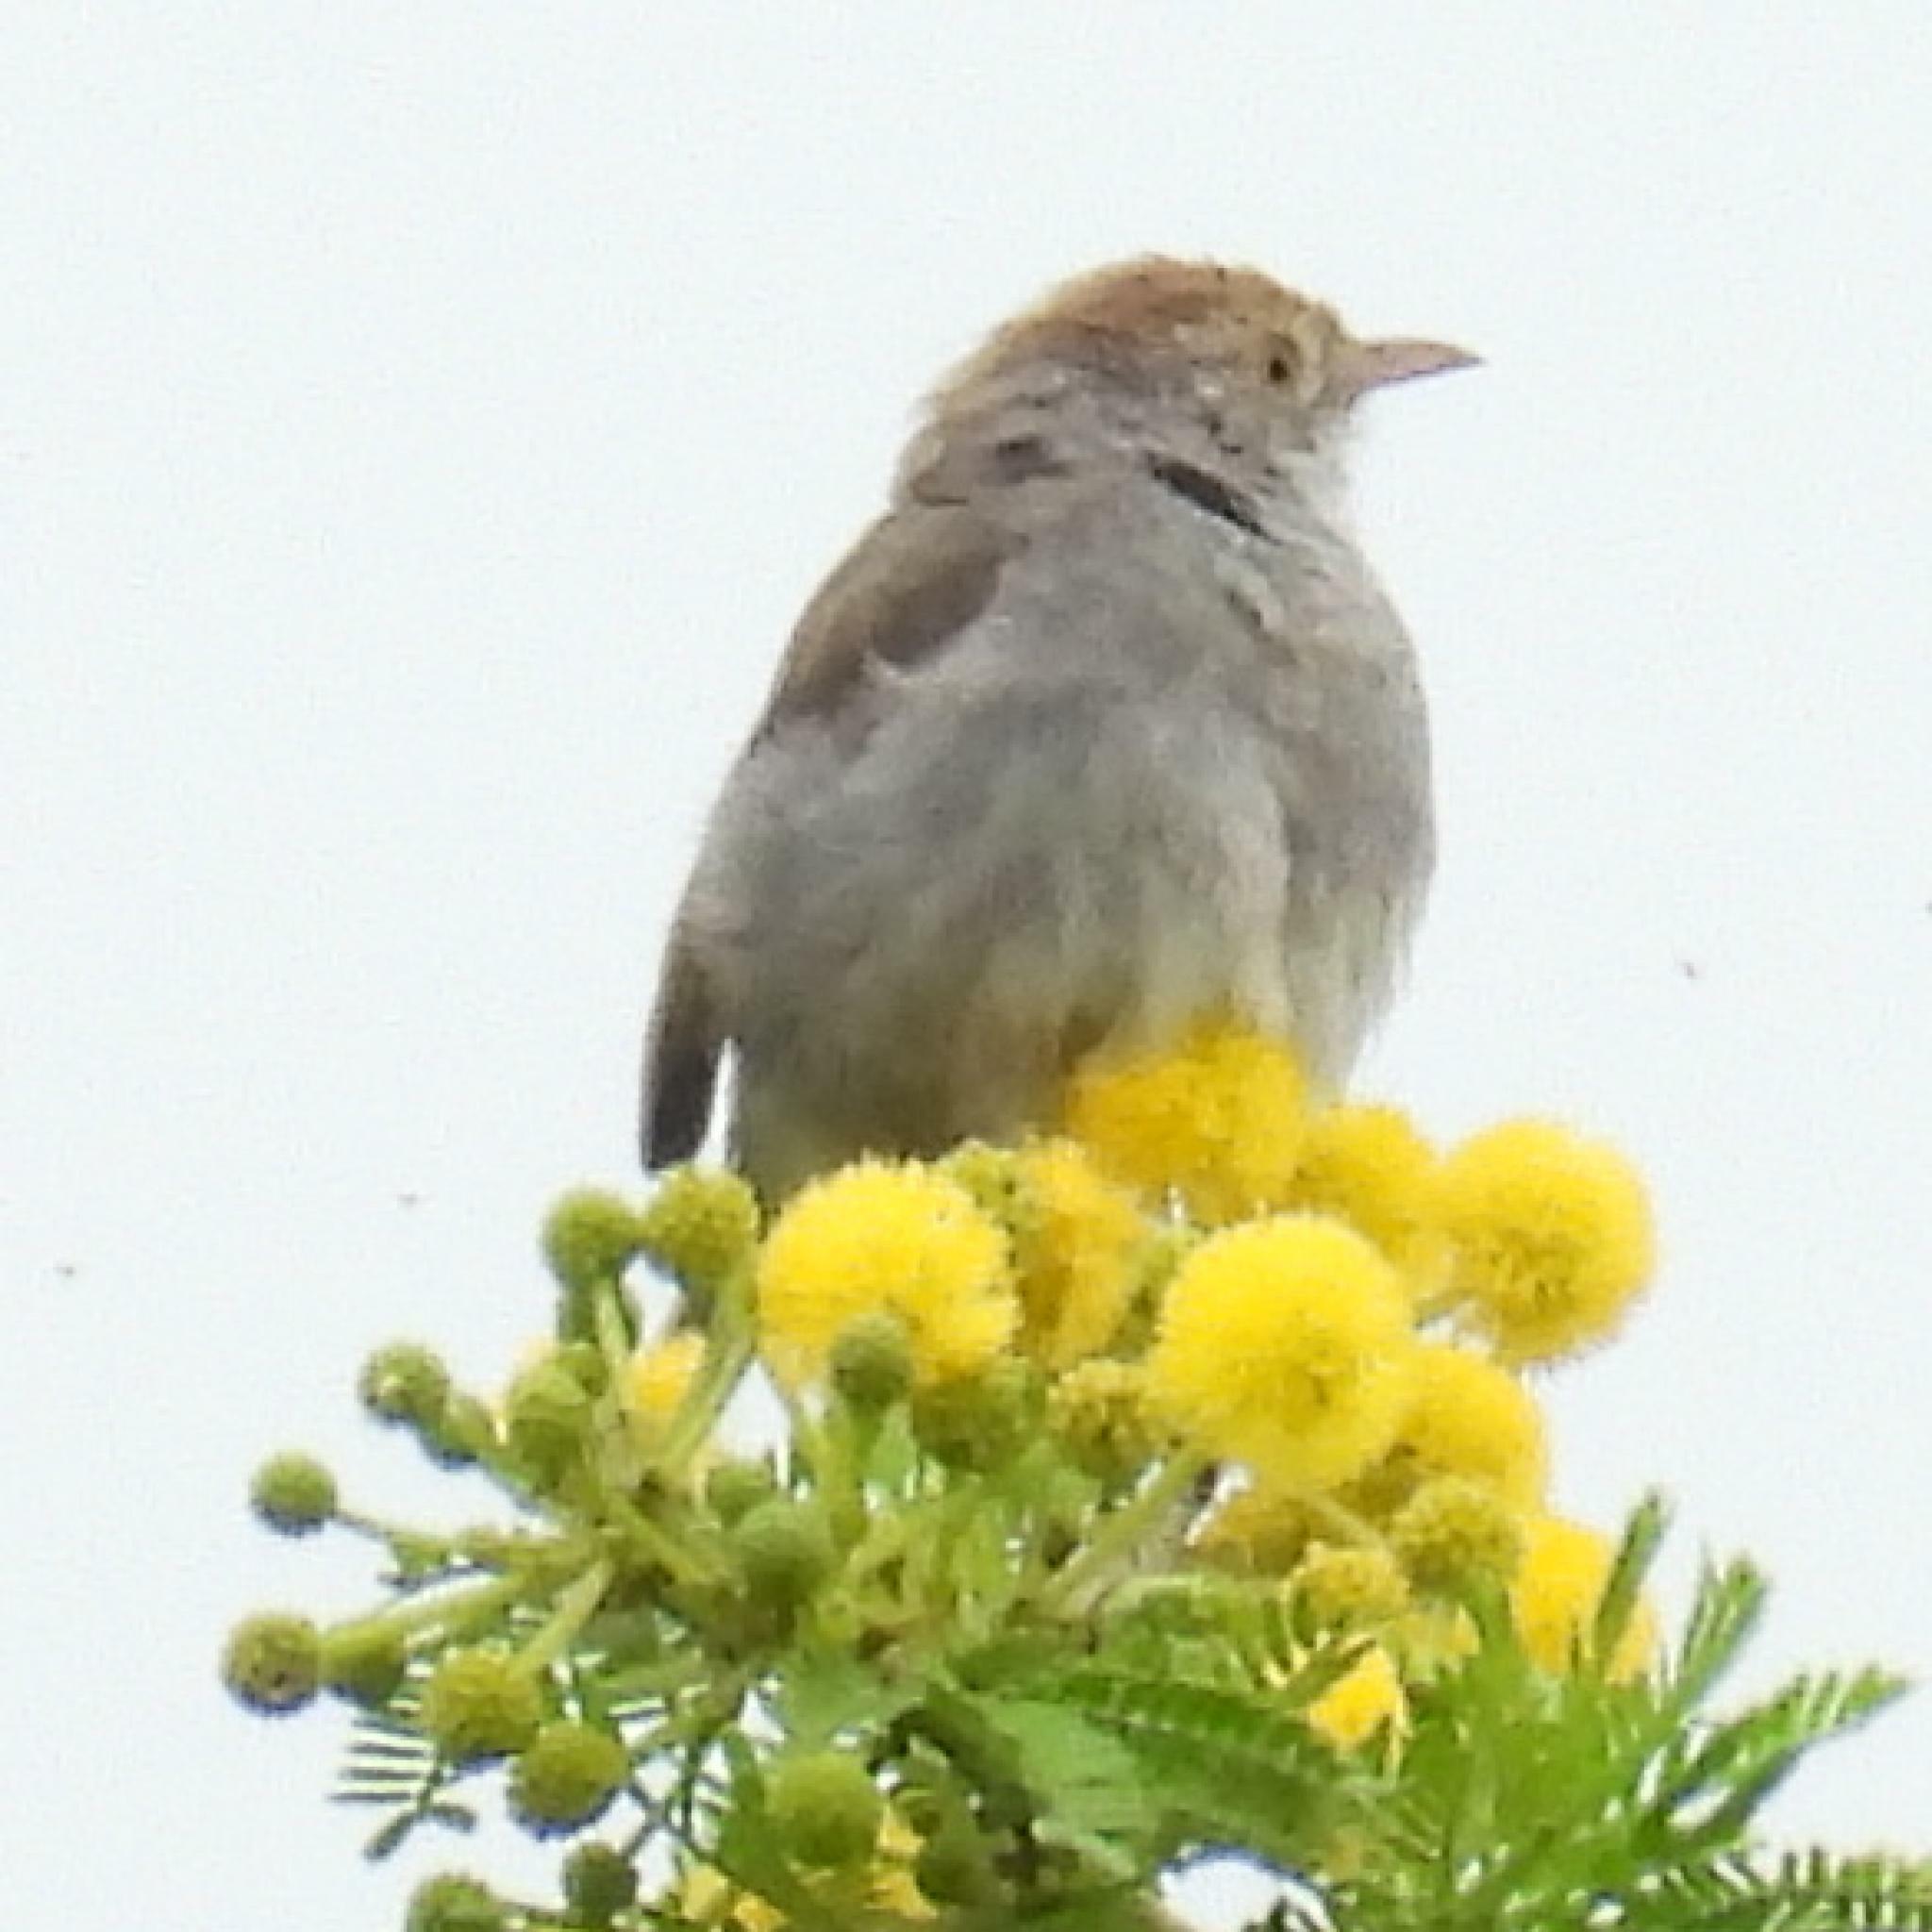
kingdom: Animalia
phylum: Chordata
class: Aves
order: Passeriformes
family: Cisticolidae
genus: Cisticola
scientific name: Cisticola fulvicapilla
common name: Neddicky
